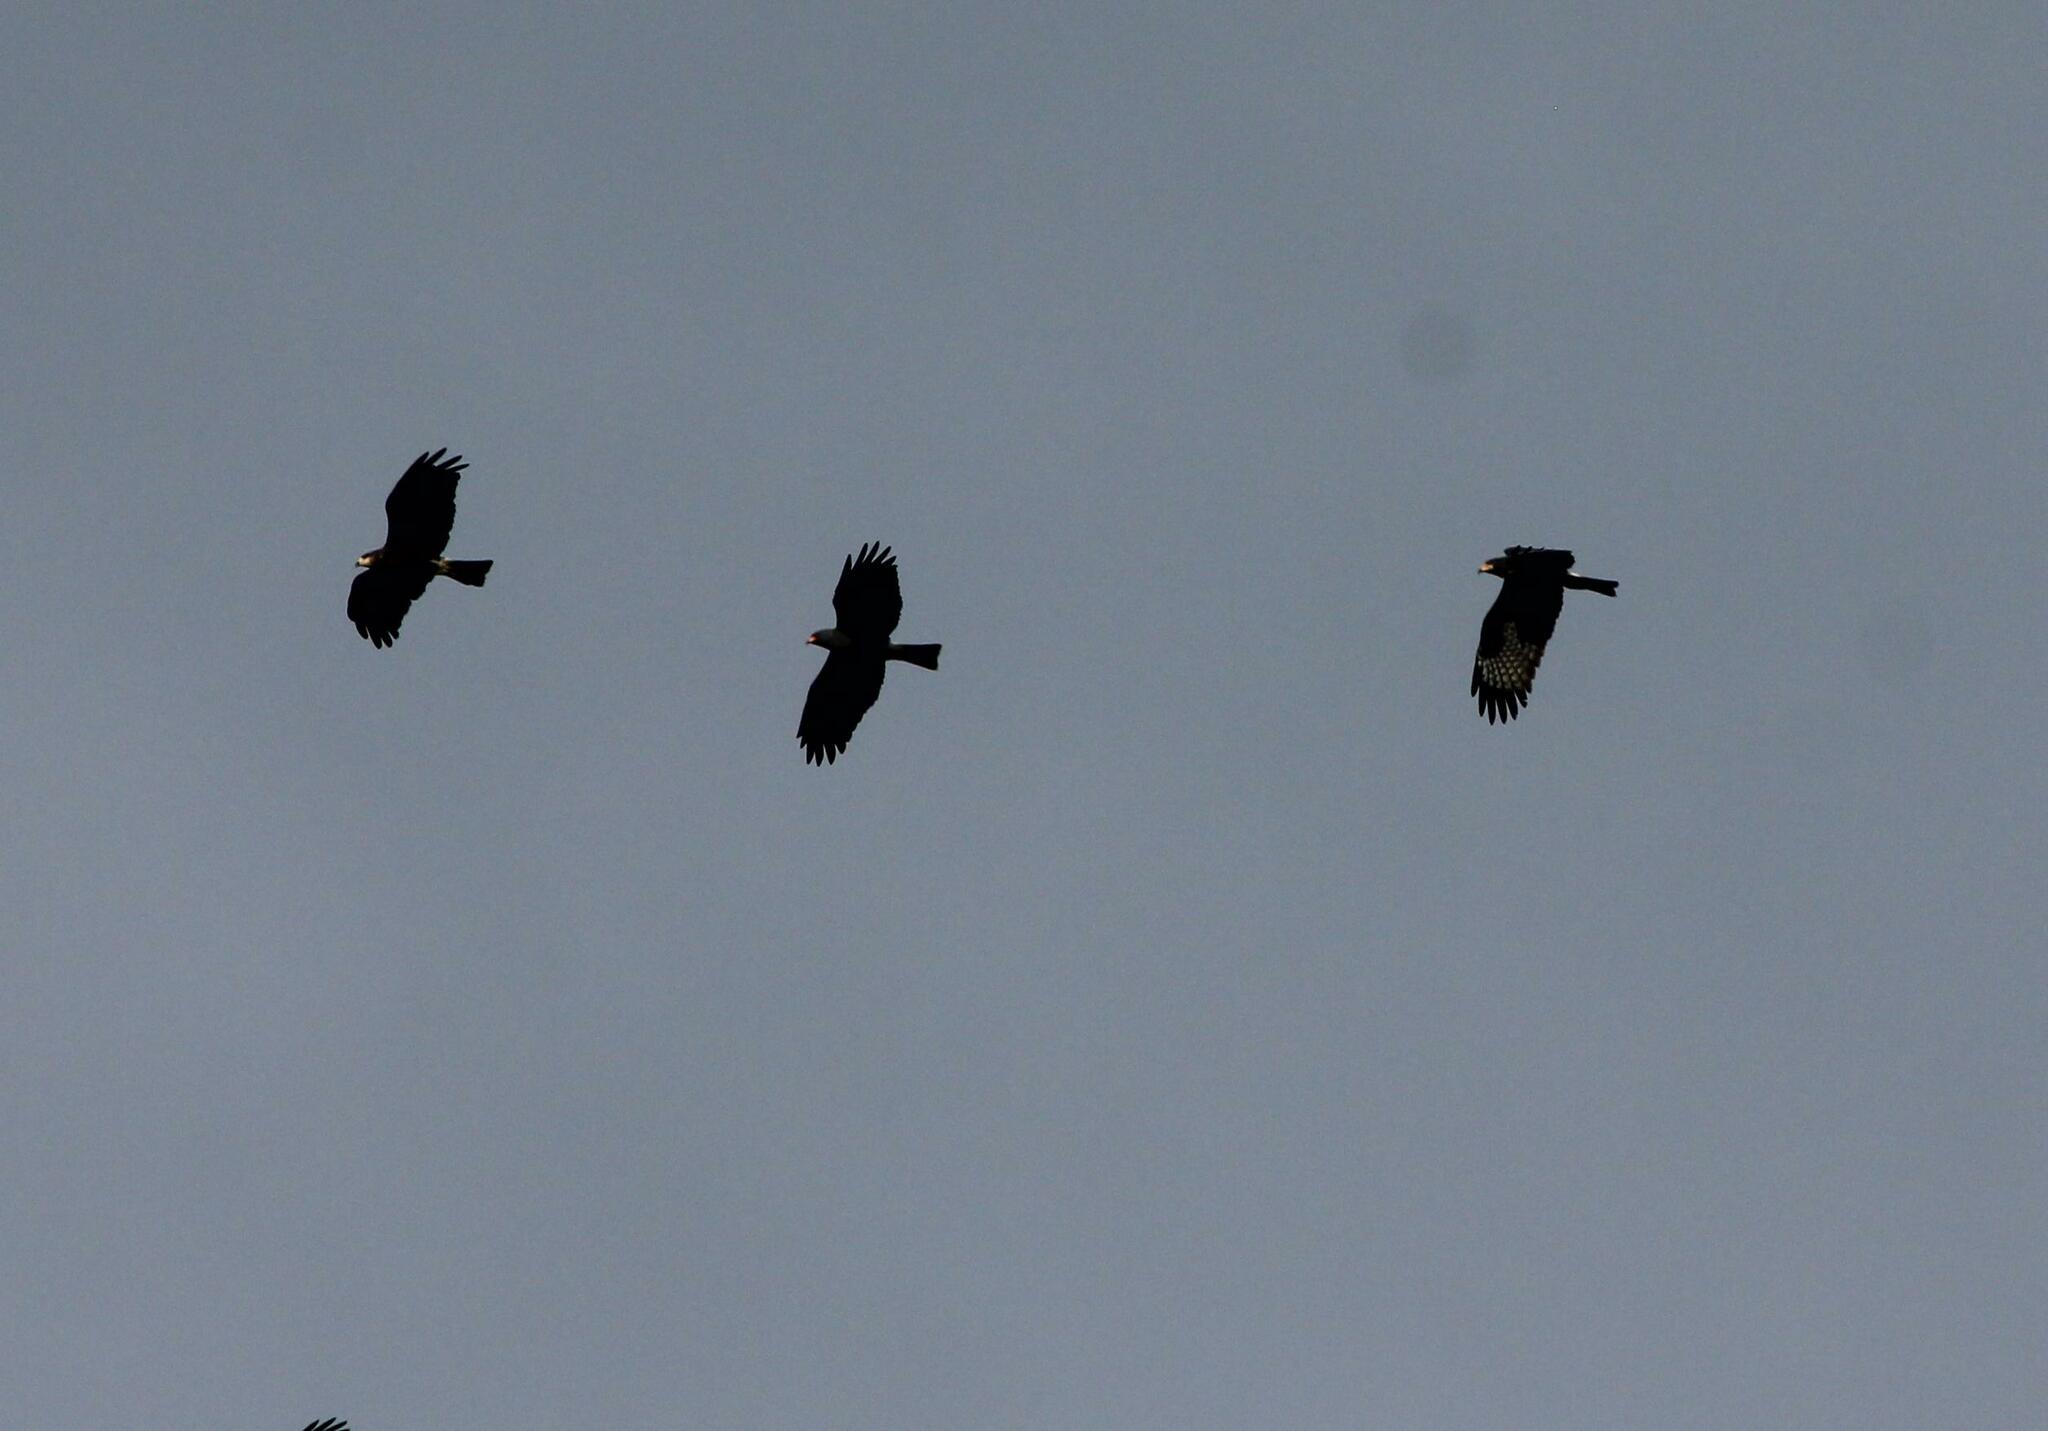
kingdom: Animalia
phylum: Chordata
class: Aves
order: Accipitriformes
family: Accipitridae
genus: Rostrhamus
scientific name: Rostrhamus sociabilis
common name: Snail kite
